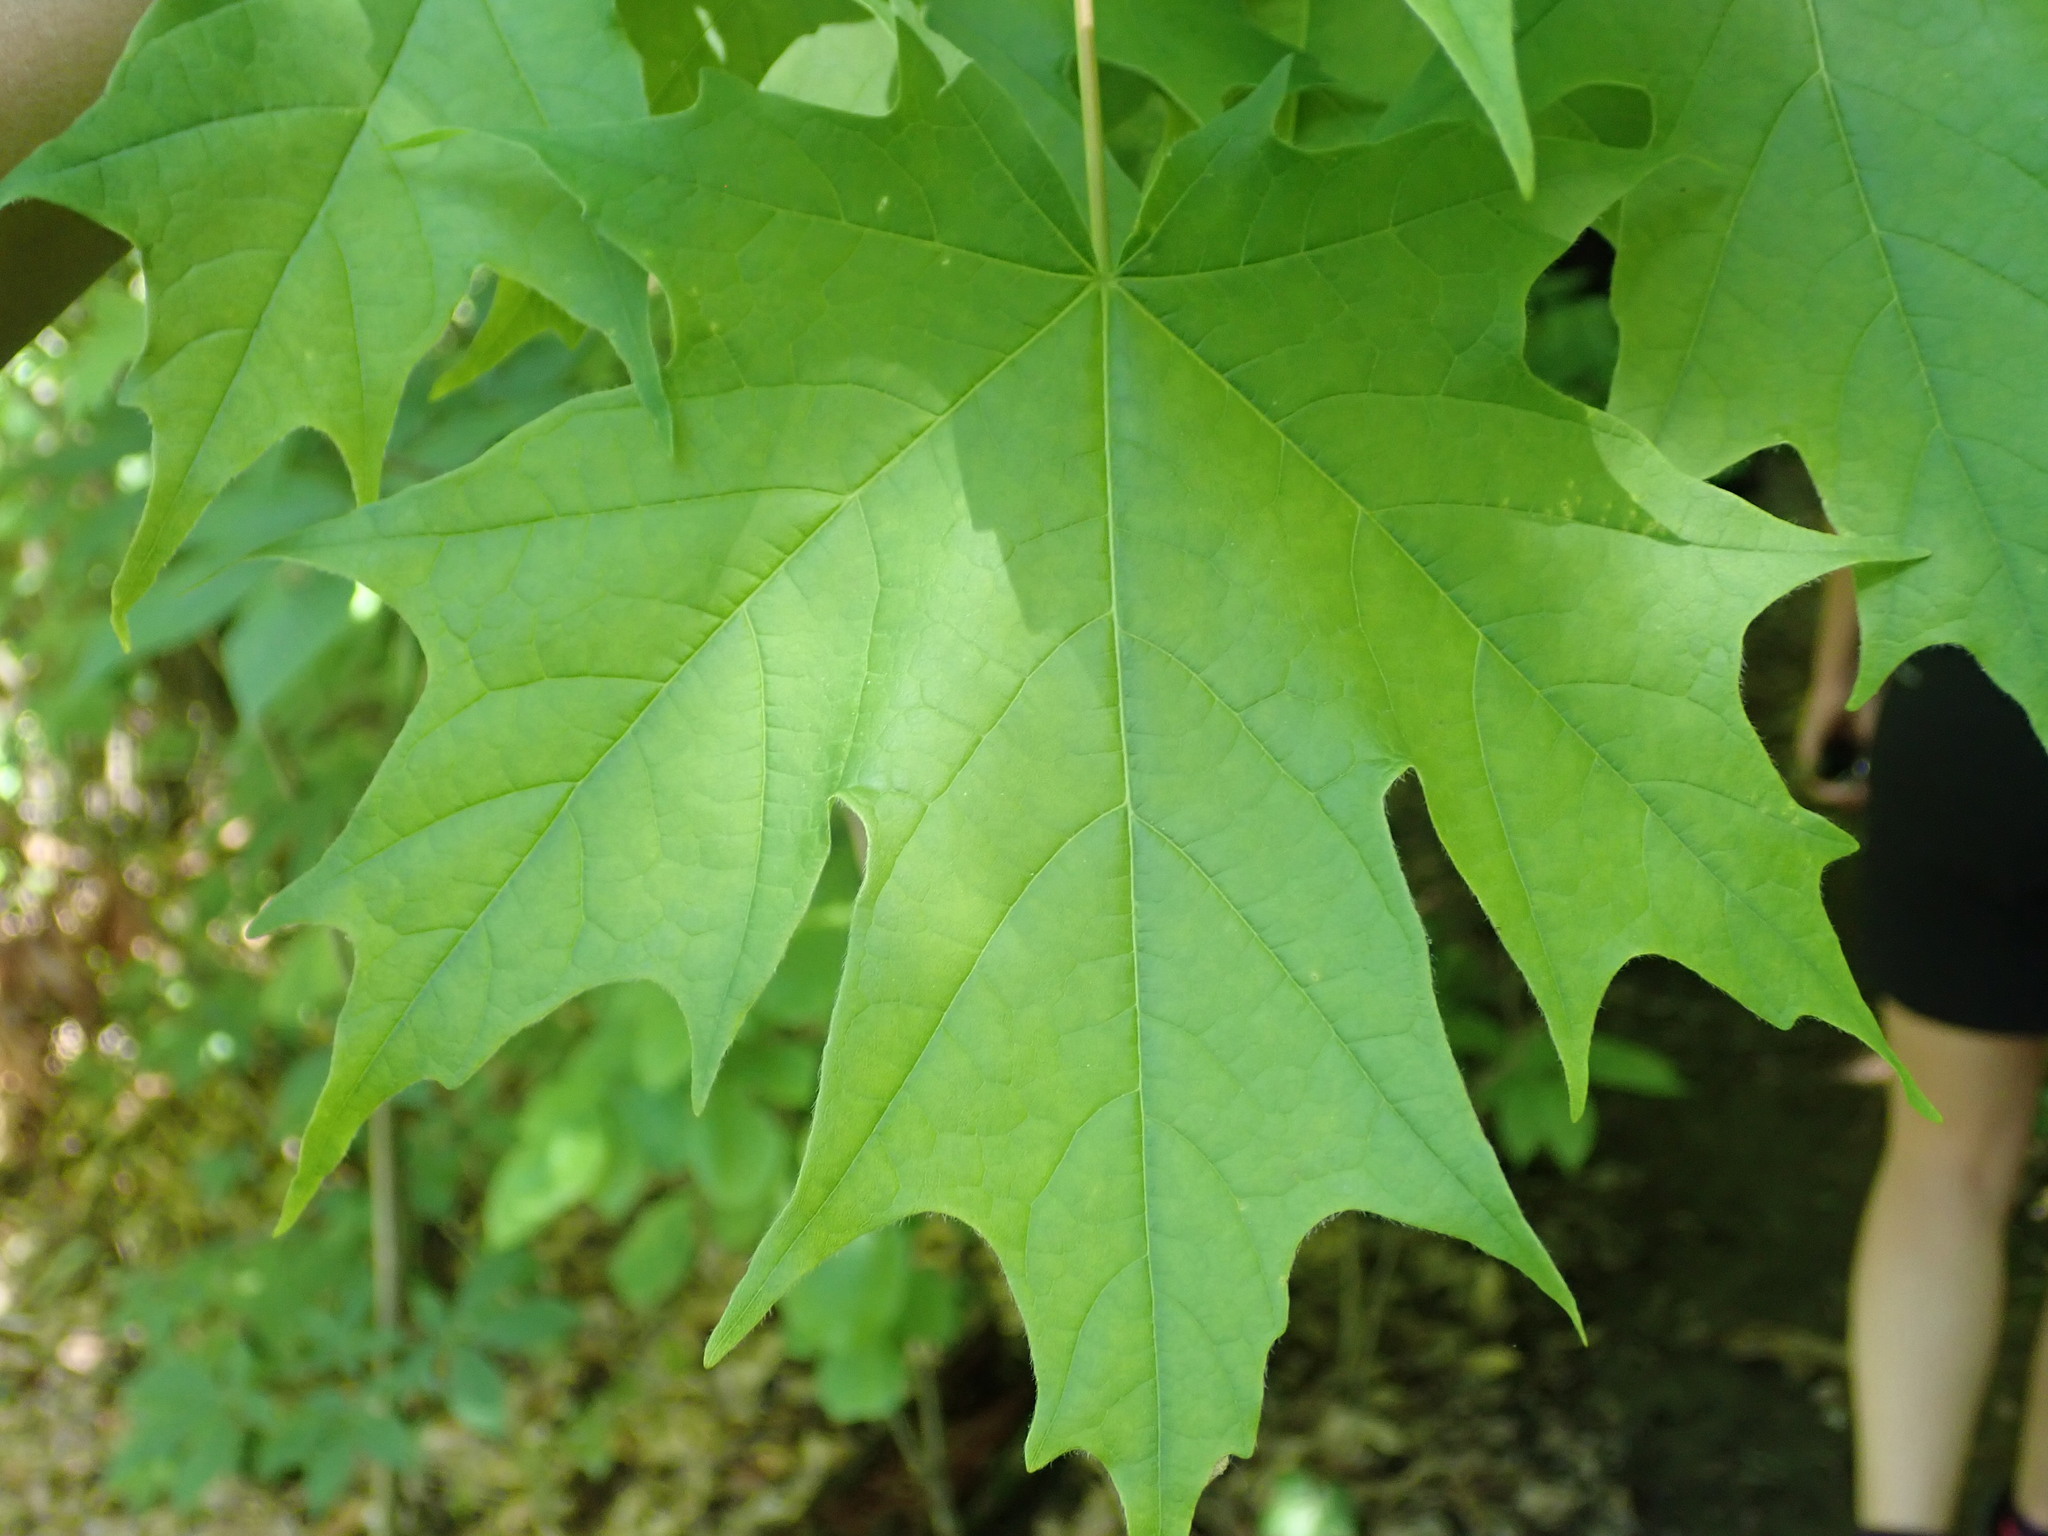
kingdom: Plantae
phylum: Tracheophyta
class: Magnoliopsida
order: Sapindales
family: Sapindaceae
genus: Acer
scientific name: Acer saccharum
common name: Sugar maple
